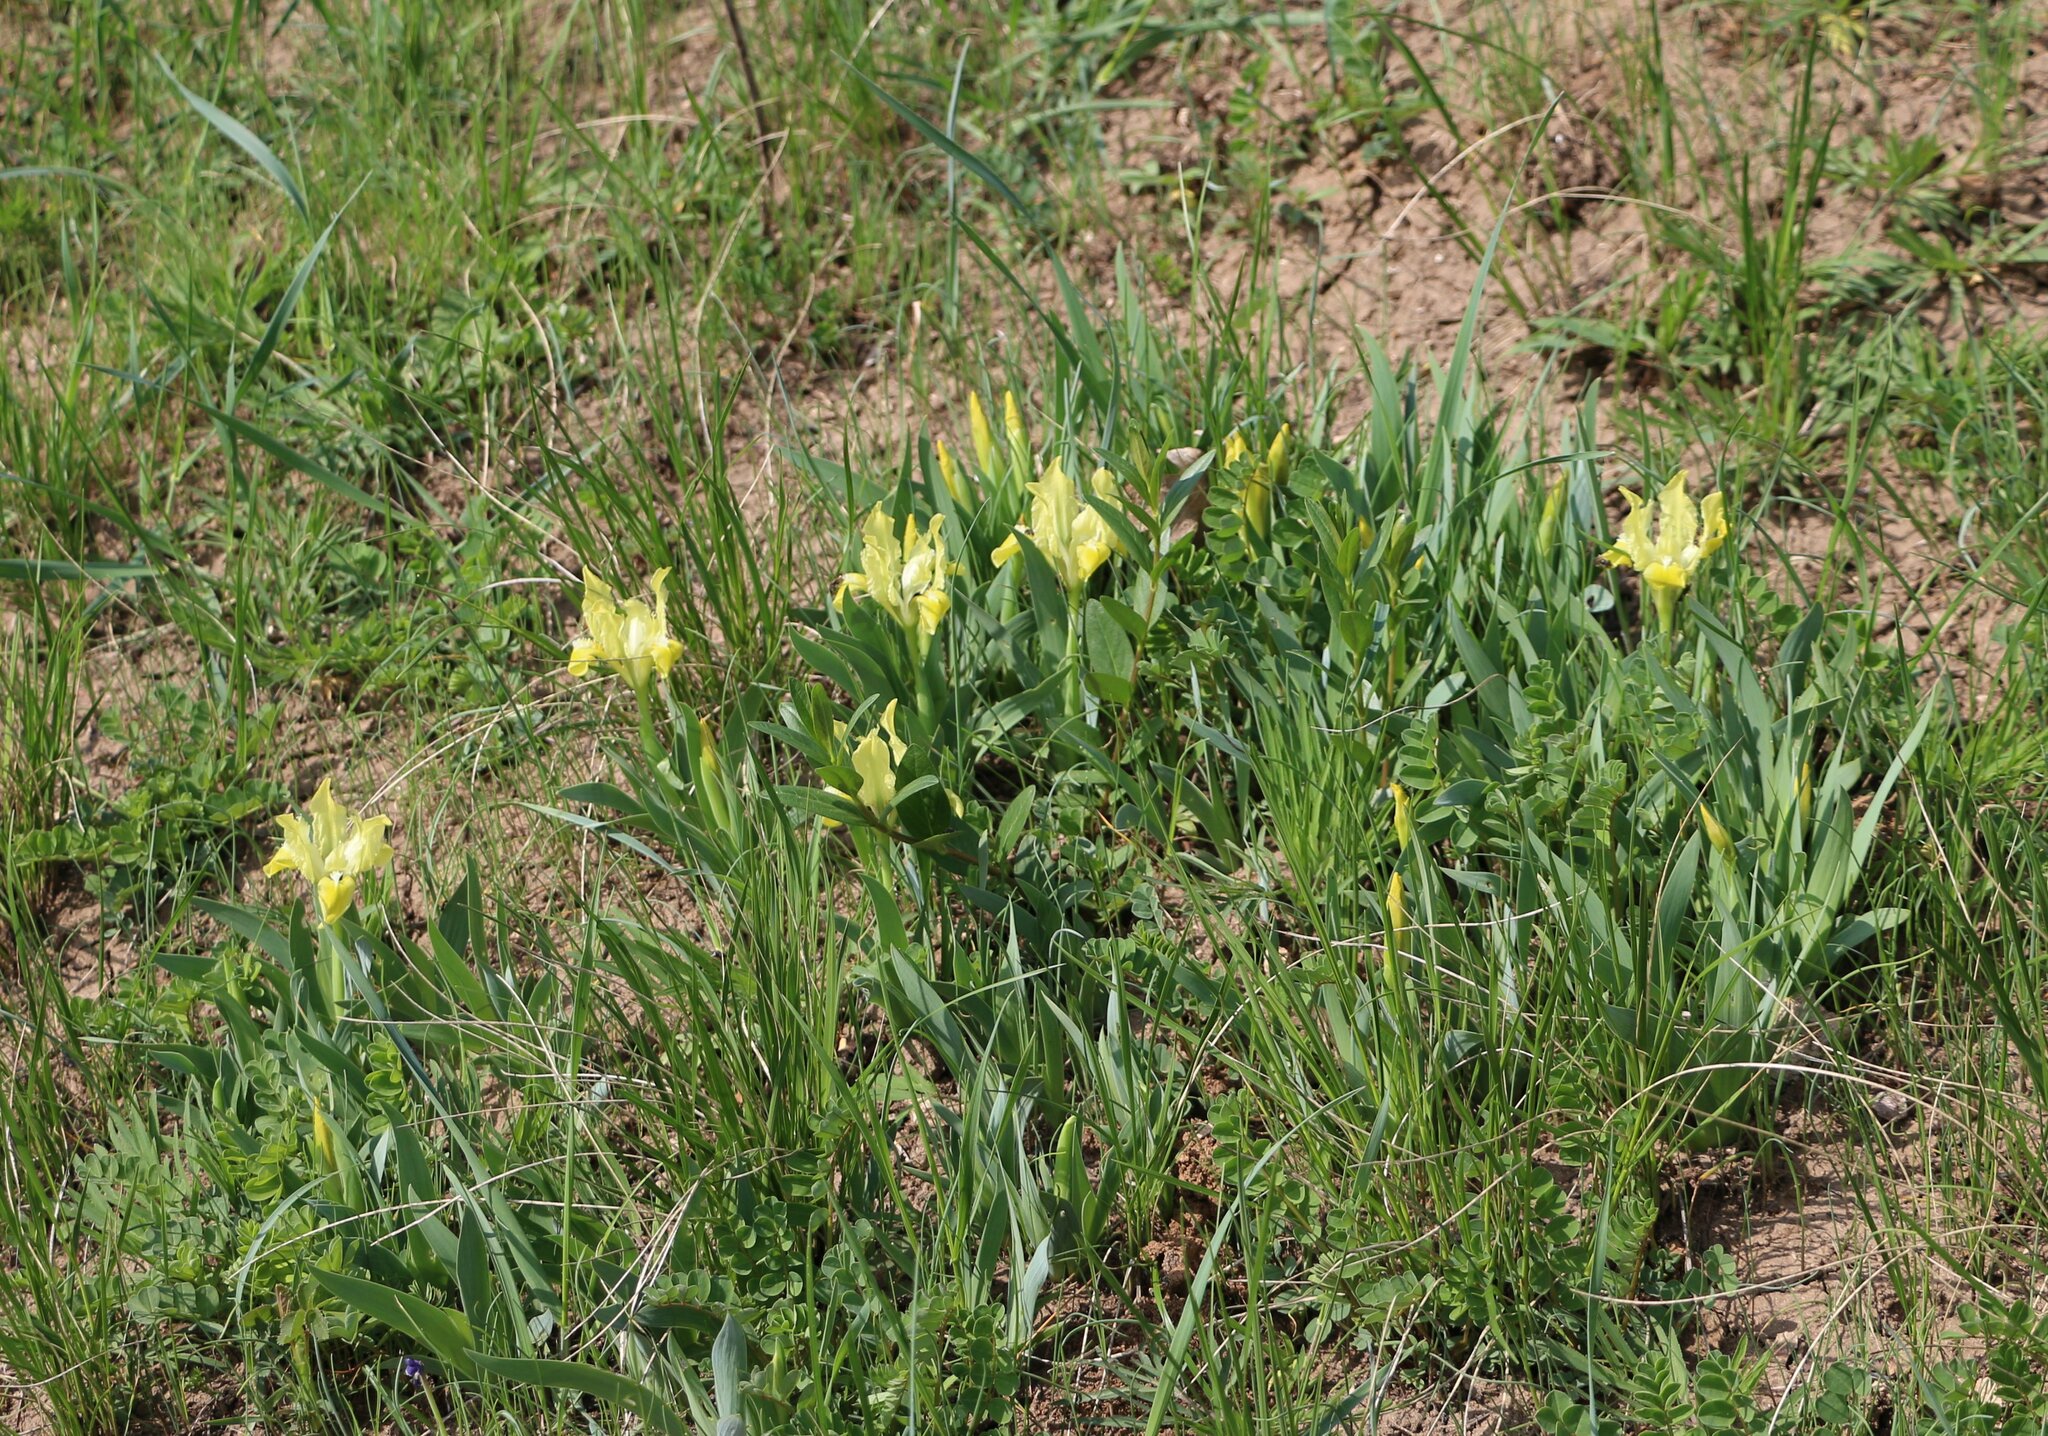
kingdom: Plantae
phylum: Tracheophyta
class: Liliopsida
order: Asparagales
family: Iridaceae
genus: Iris
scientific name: Iris pumila
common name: Dwarf iris
